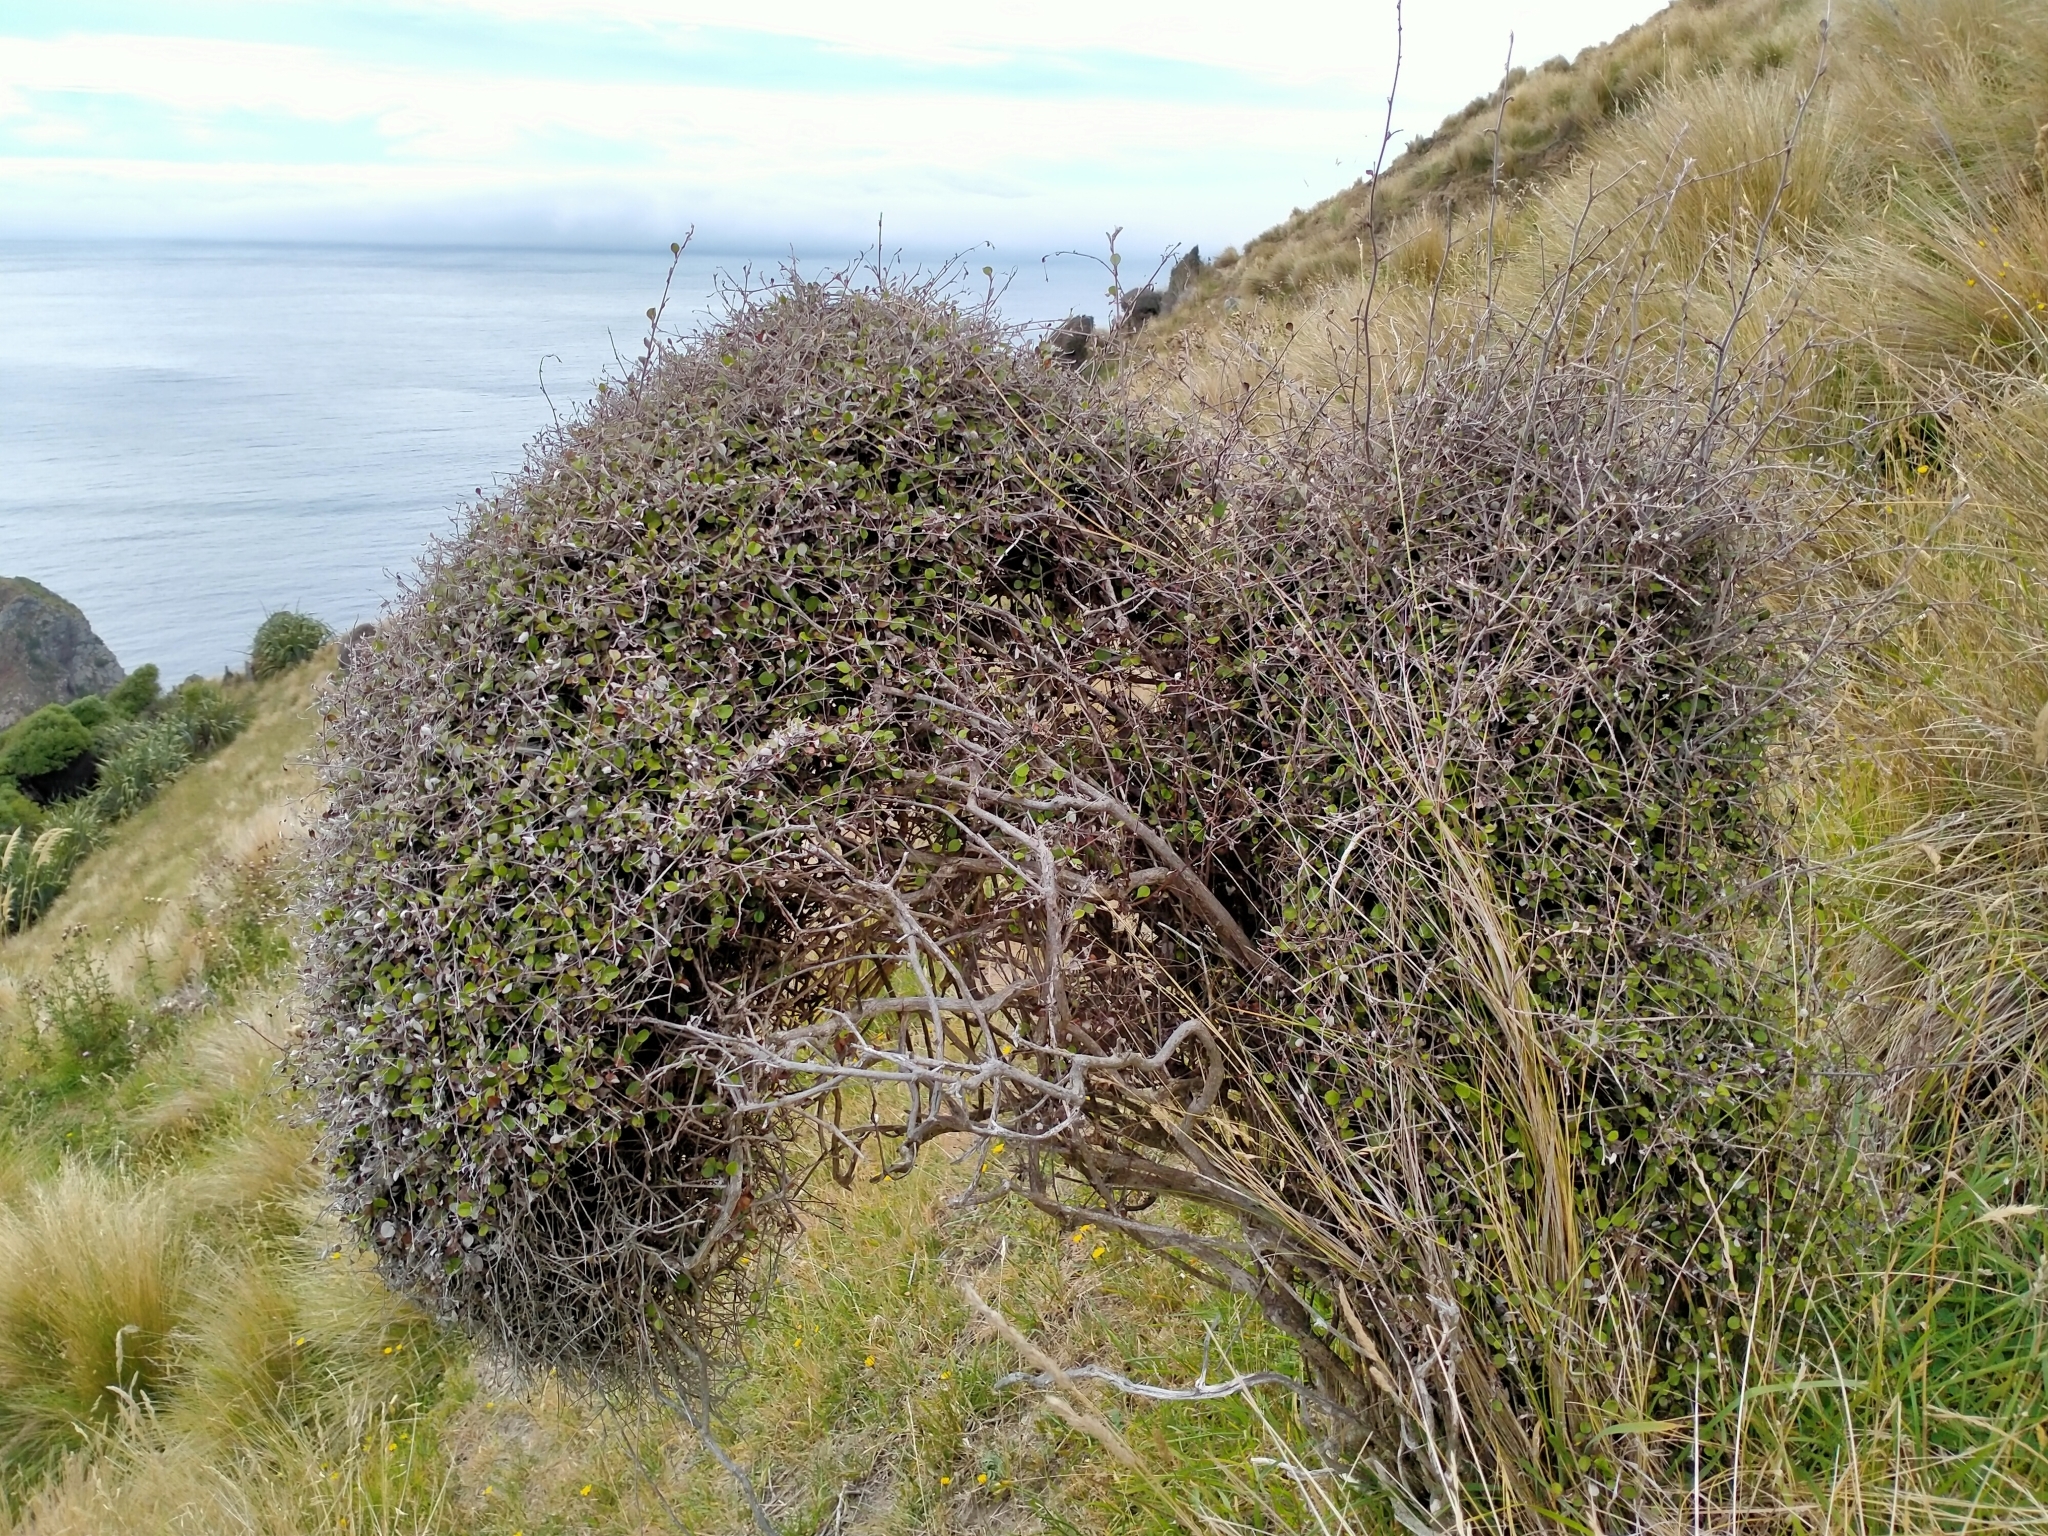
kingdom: Plantae
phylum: Tracheophyta
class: Magnoliopsida
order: Asterales
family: Asteraceae
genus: Ozothamnus
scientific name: Ozothamnus glomeratus
